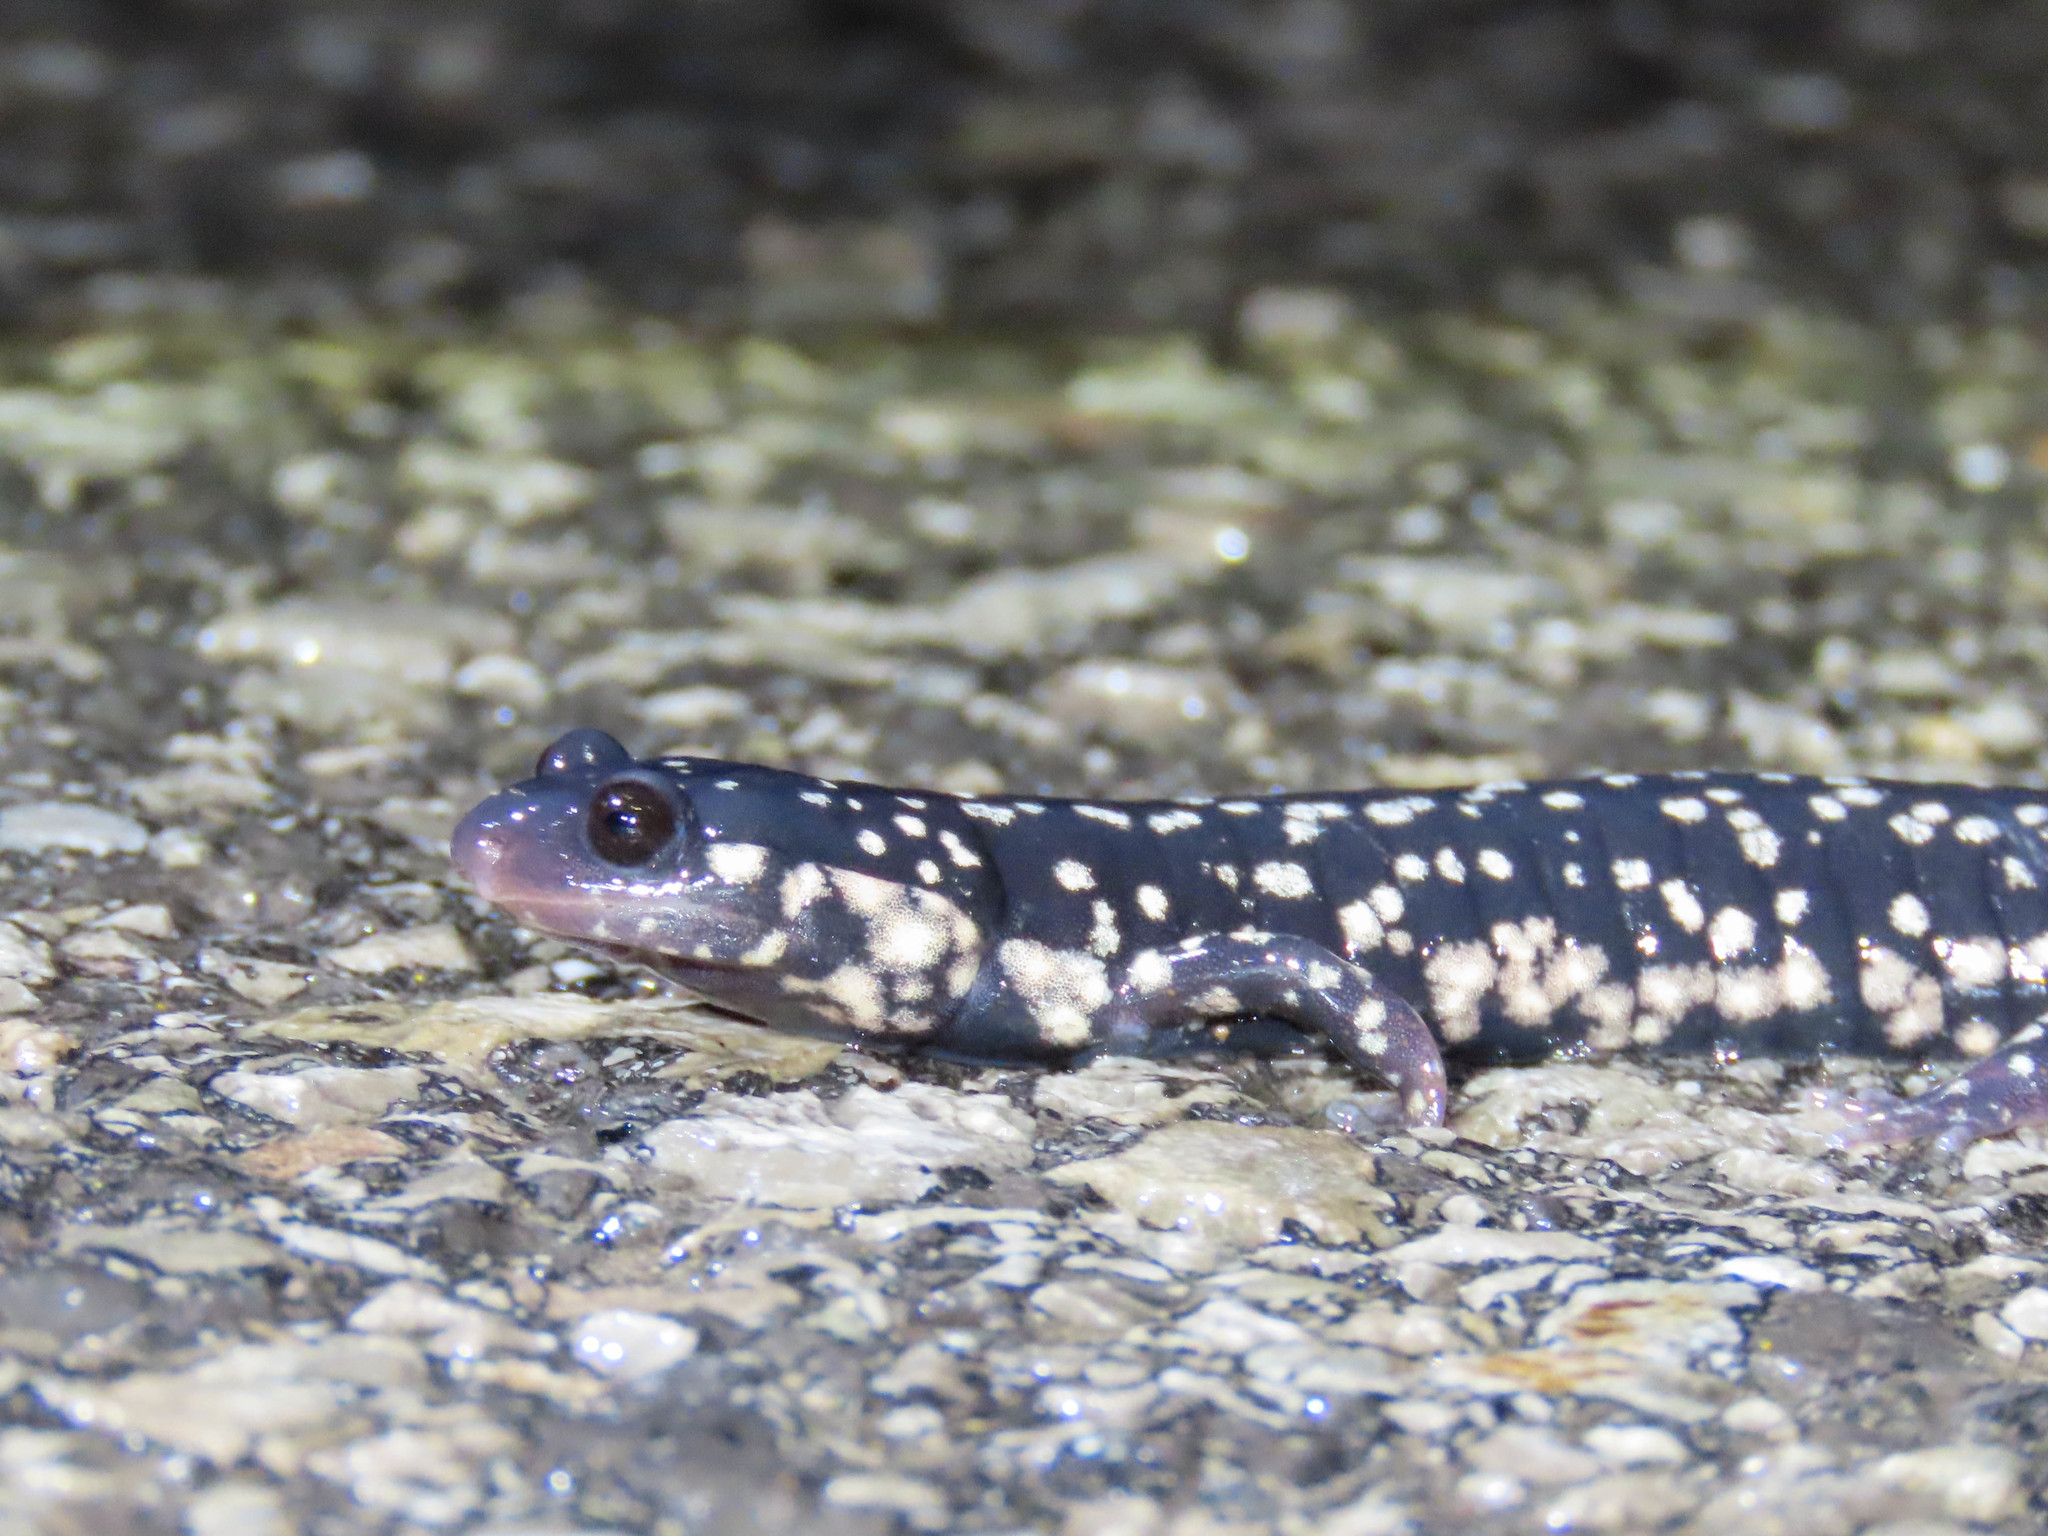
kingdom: Animalia
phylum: Chordata
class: Amphibia
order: Caudata
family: Plethodontidae
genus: Plethodon
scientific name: Plethodon glutinosus
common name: Northern slimy salamander
